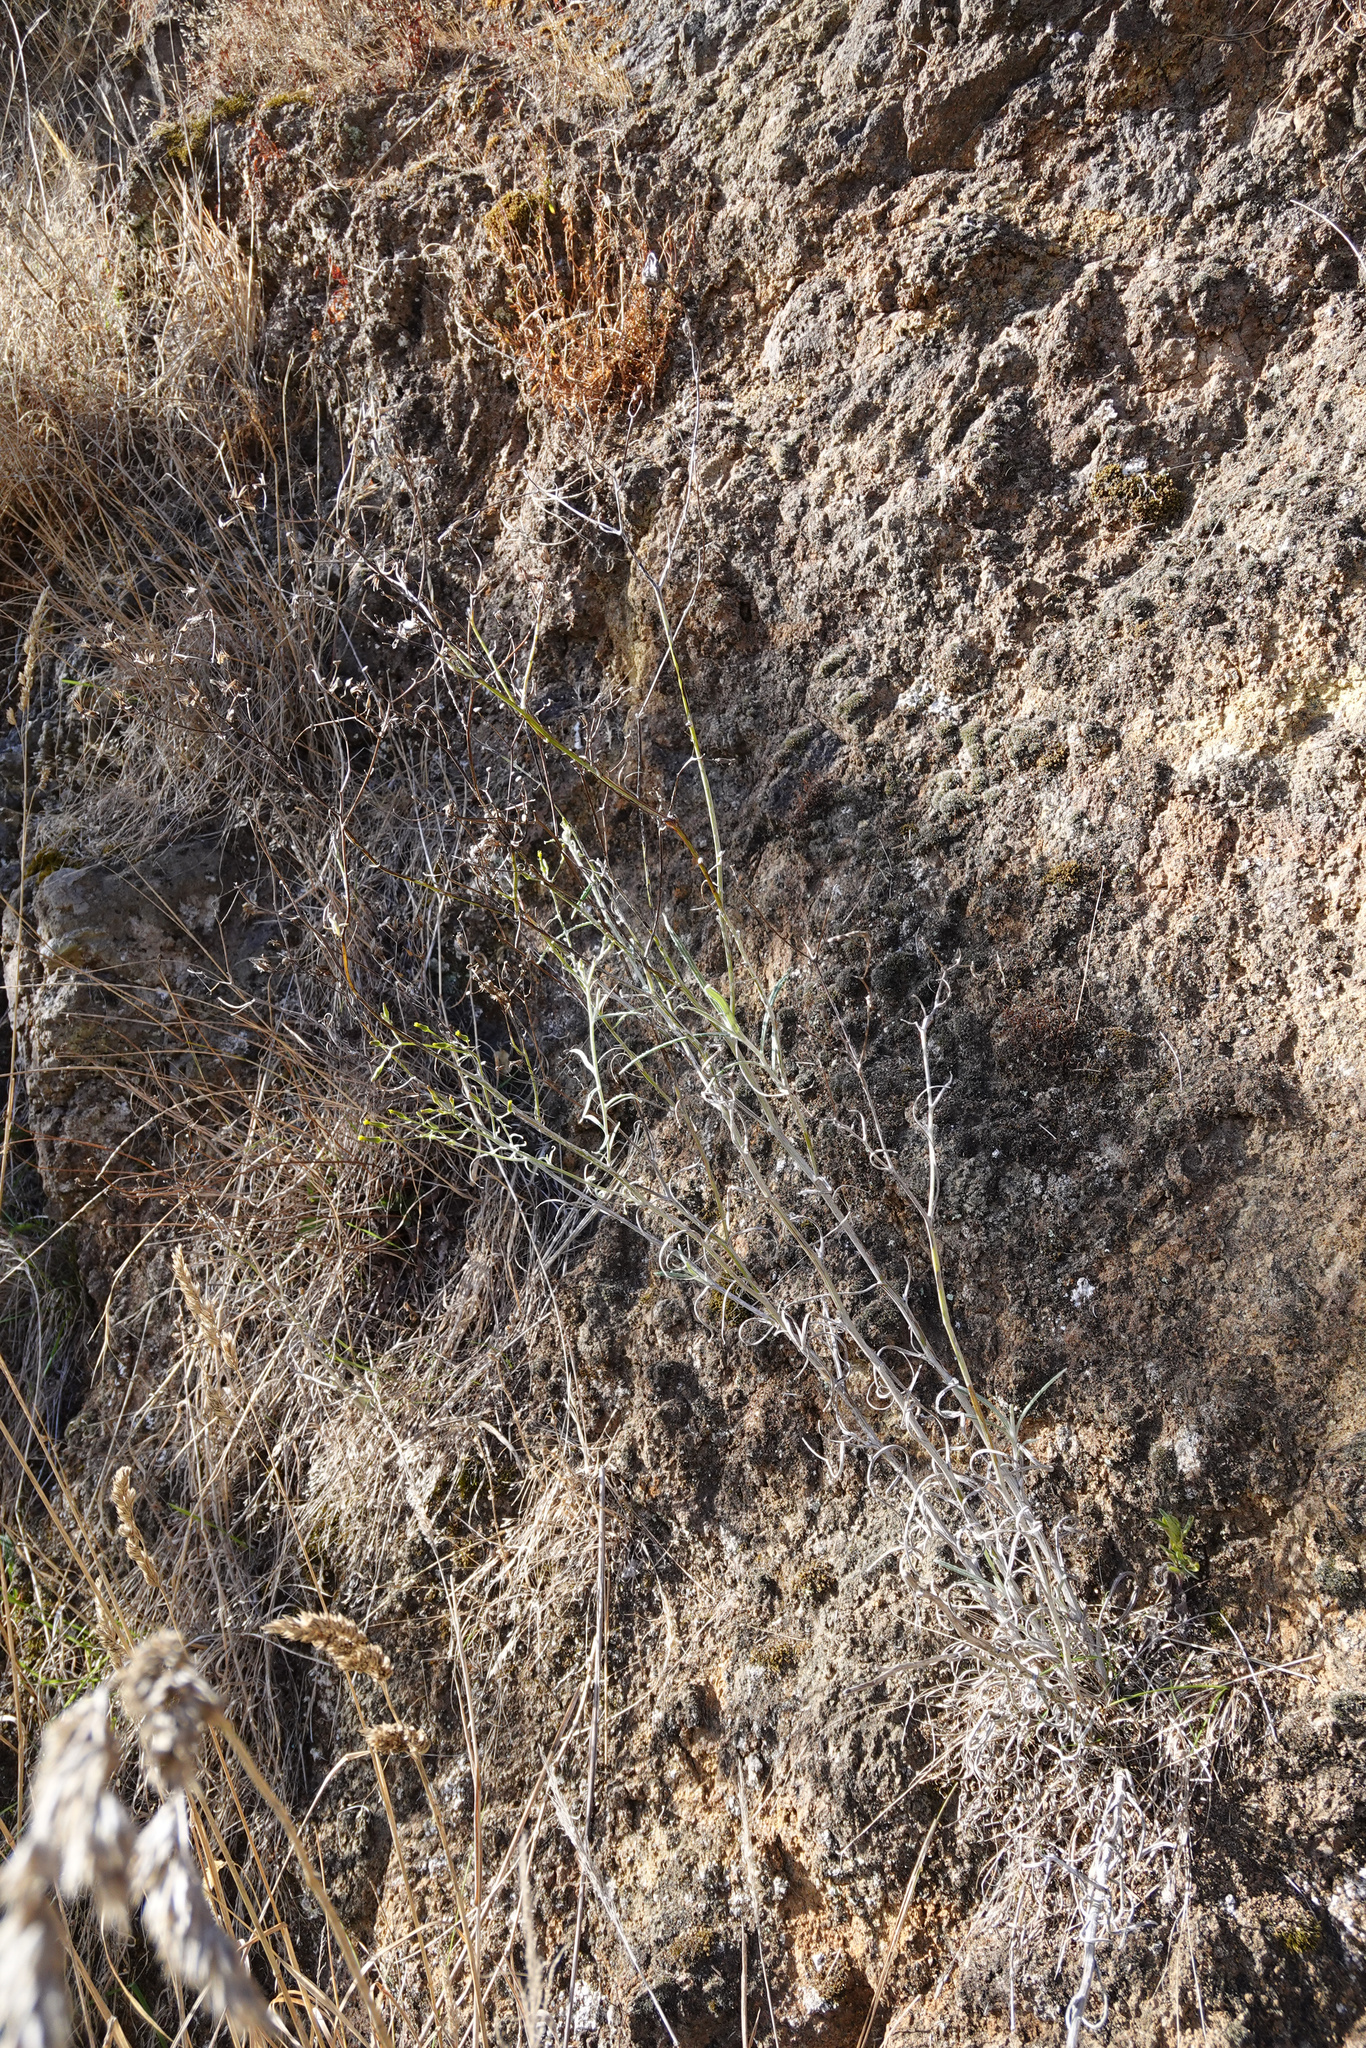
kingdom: Plantae
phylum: Tracheophyta
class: Magnoliopsida
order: Asterales
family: Asteraceae
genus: Senecio
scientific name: Senecio quadridentatus
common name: Cotton fireweed
